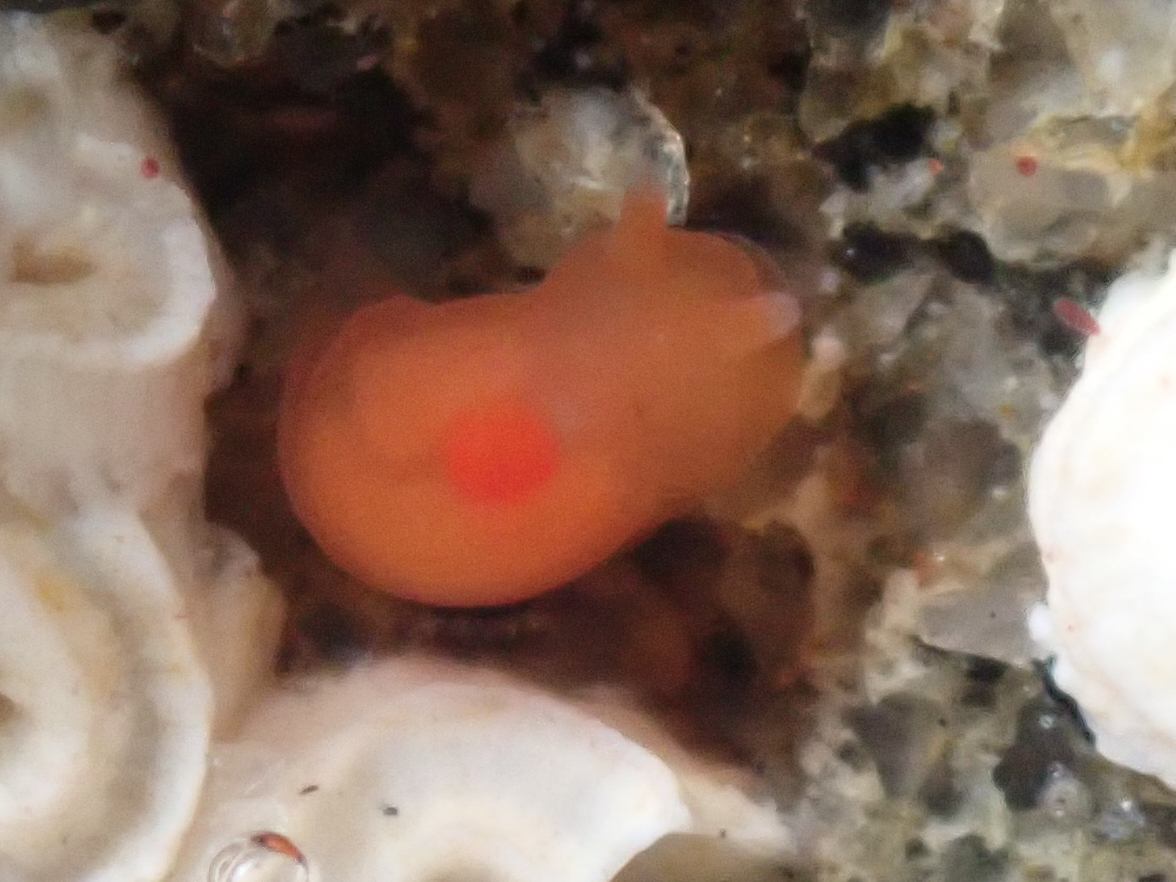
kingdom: Animalia
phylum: Mollusca
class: Gastropoda
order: Nudibranchia
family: Okadaiidae
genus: Vayssierea
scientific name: Vayssierea felis
